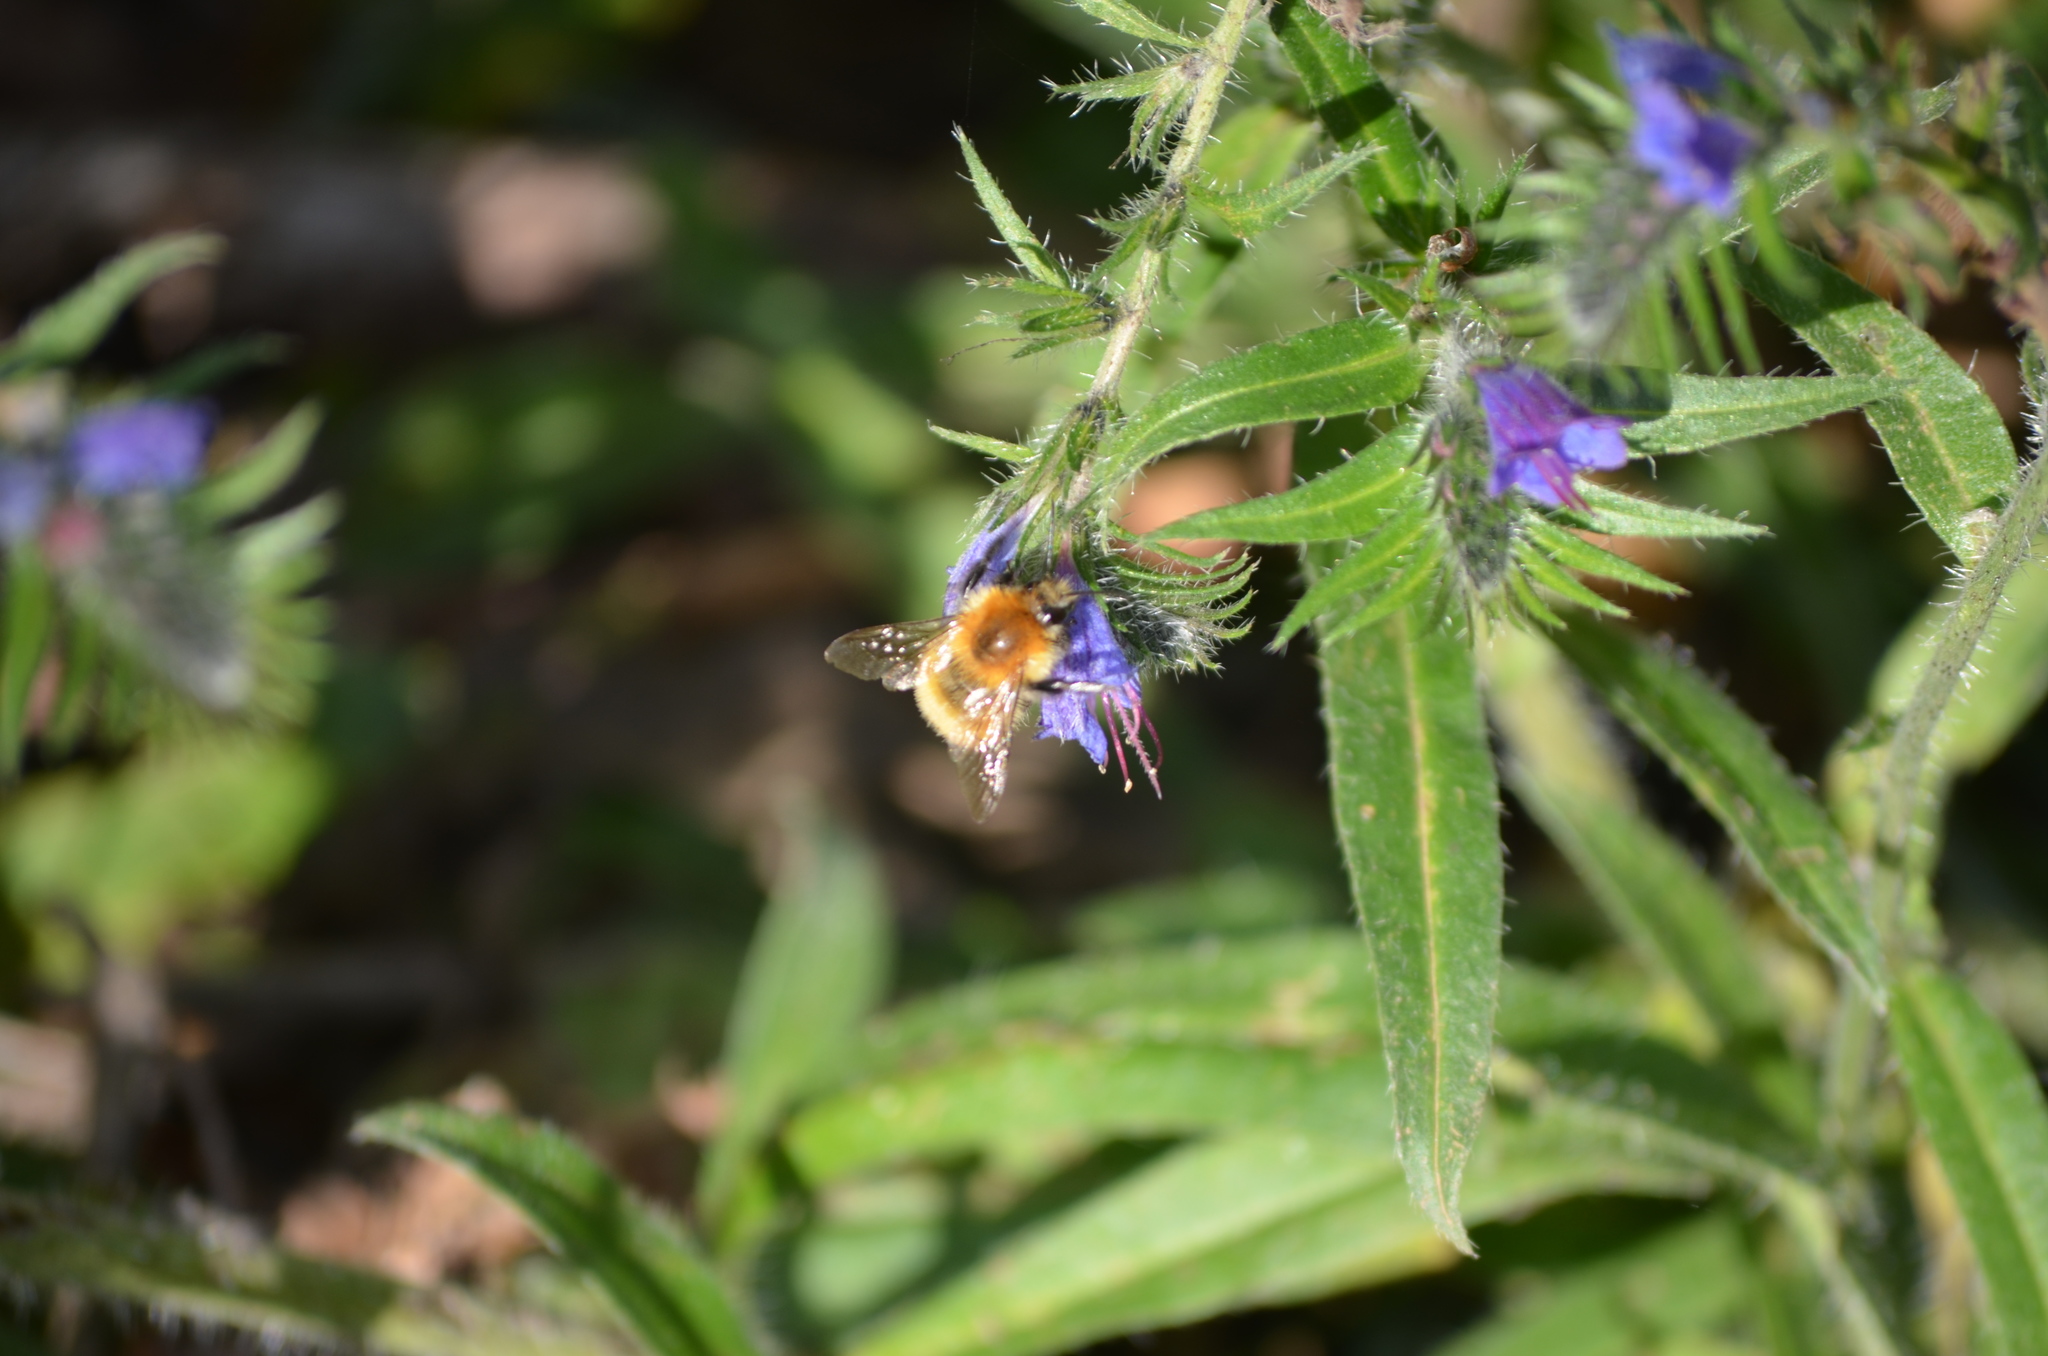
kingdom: Animalia
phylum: Arthropoda
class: Insecta
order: Hymenoptera
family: Apidae
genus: Bombus
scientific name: Bombus pascuorum
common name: Common carder bee
